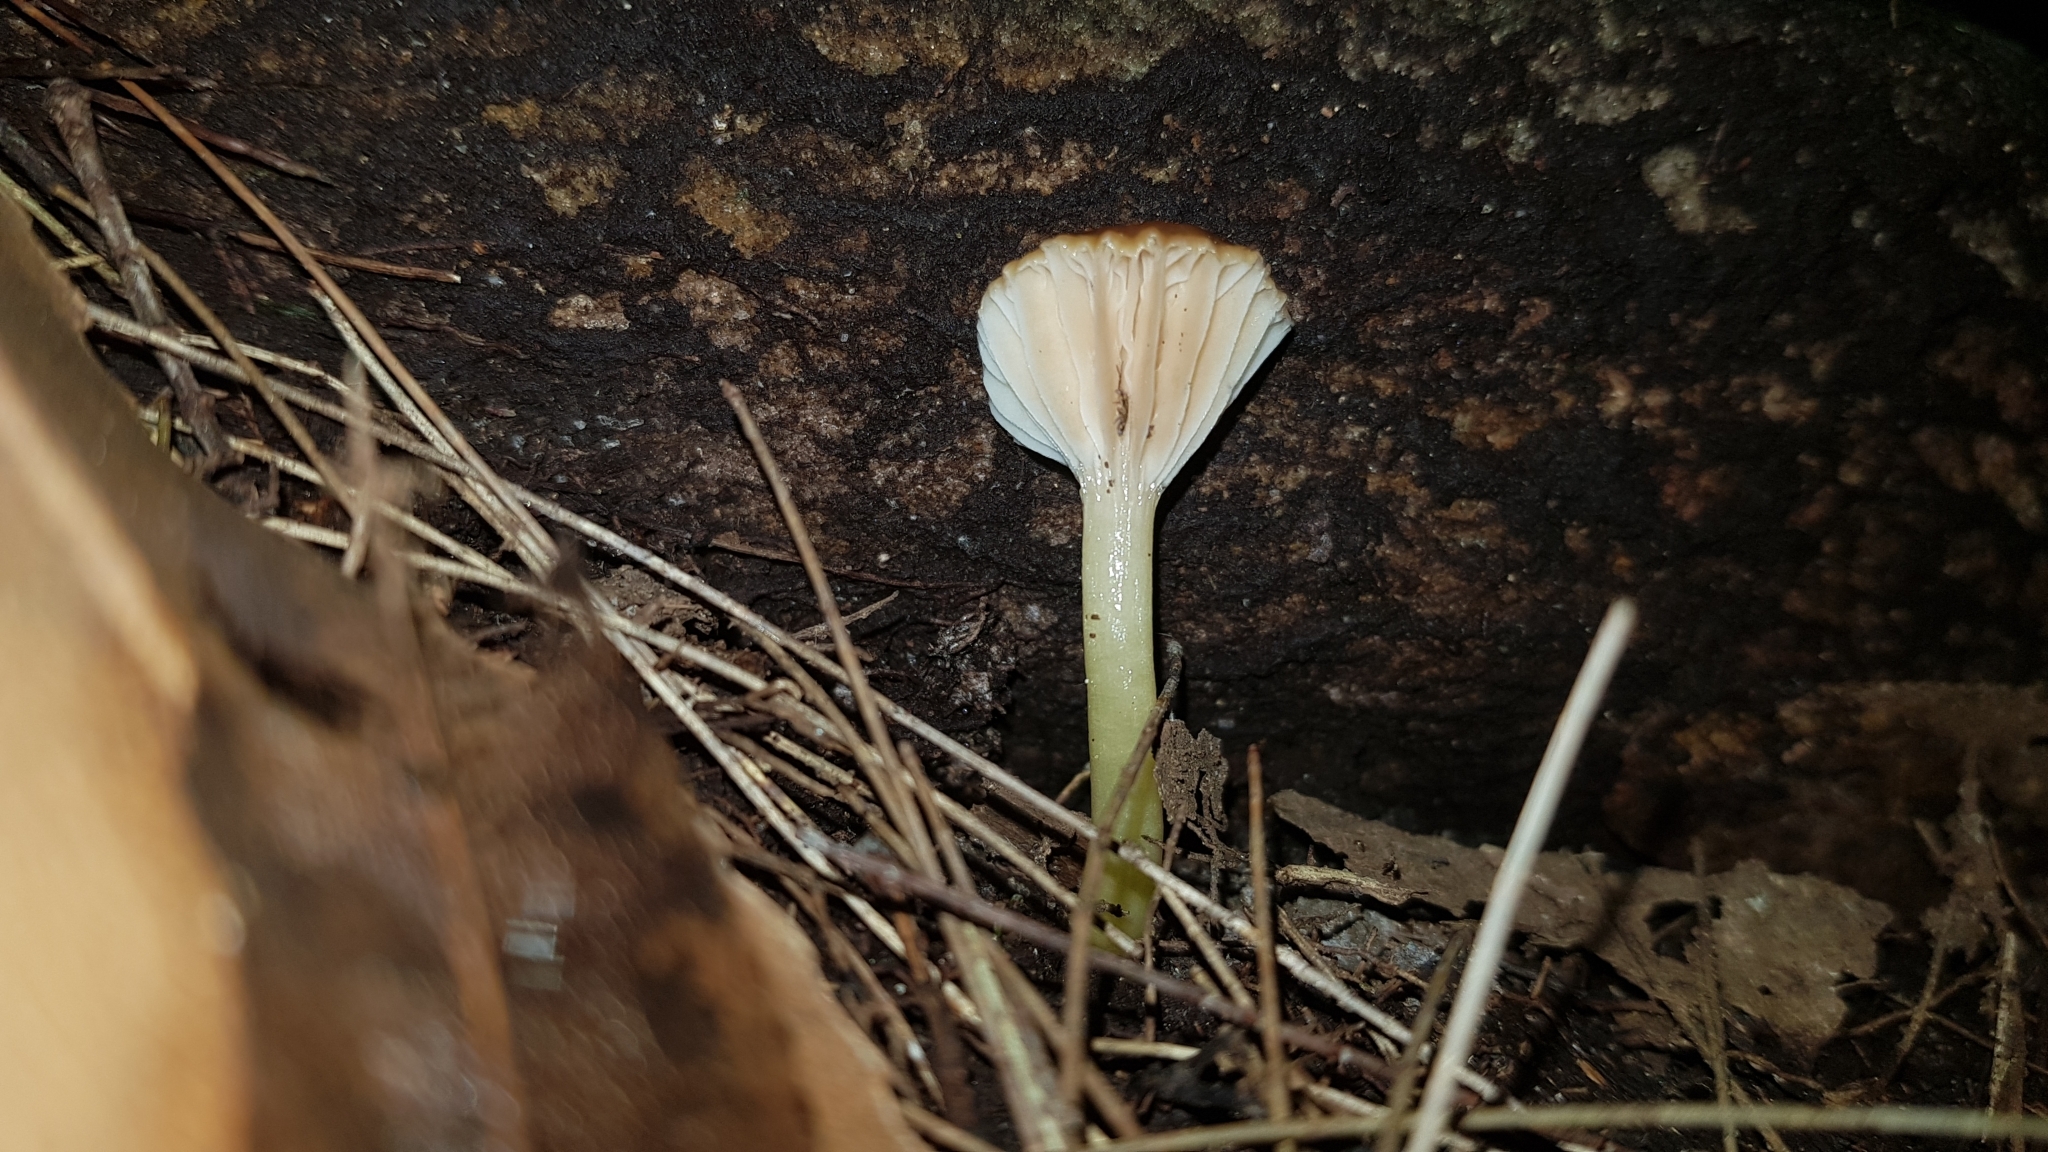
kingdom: Fungi
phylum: Basidiomycota
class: Agaricomycetes
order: Agaricales
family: Hygrophoraceae
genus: Gliophorus
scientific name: Gliophorus graminicolor
